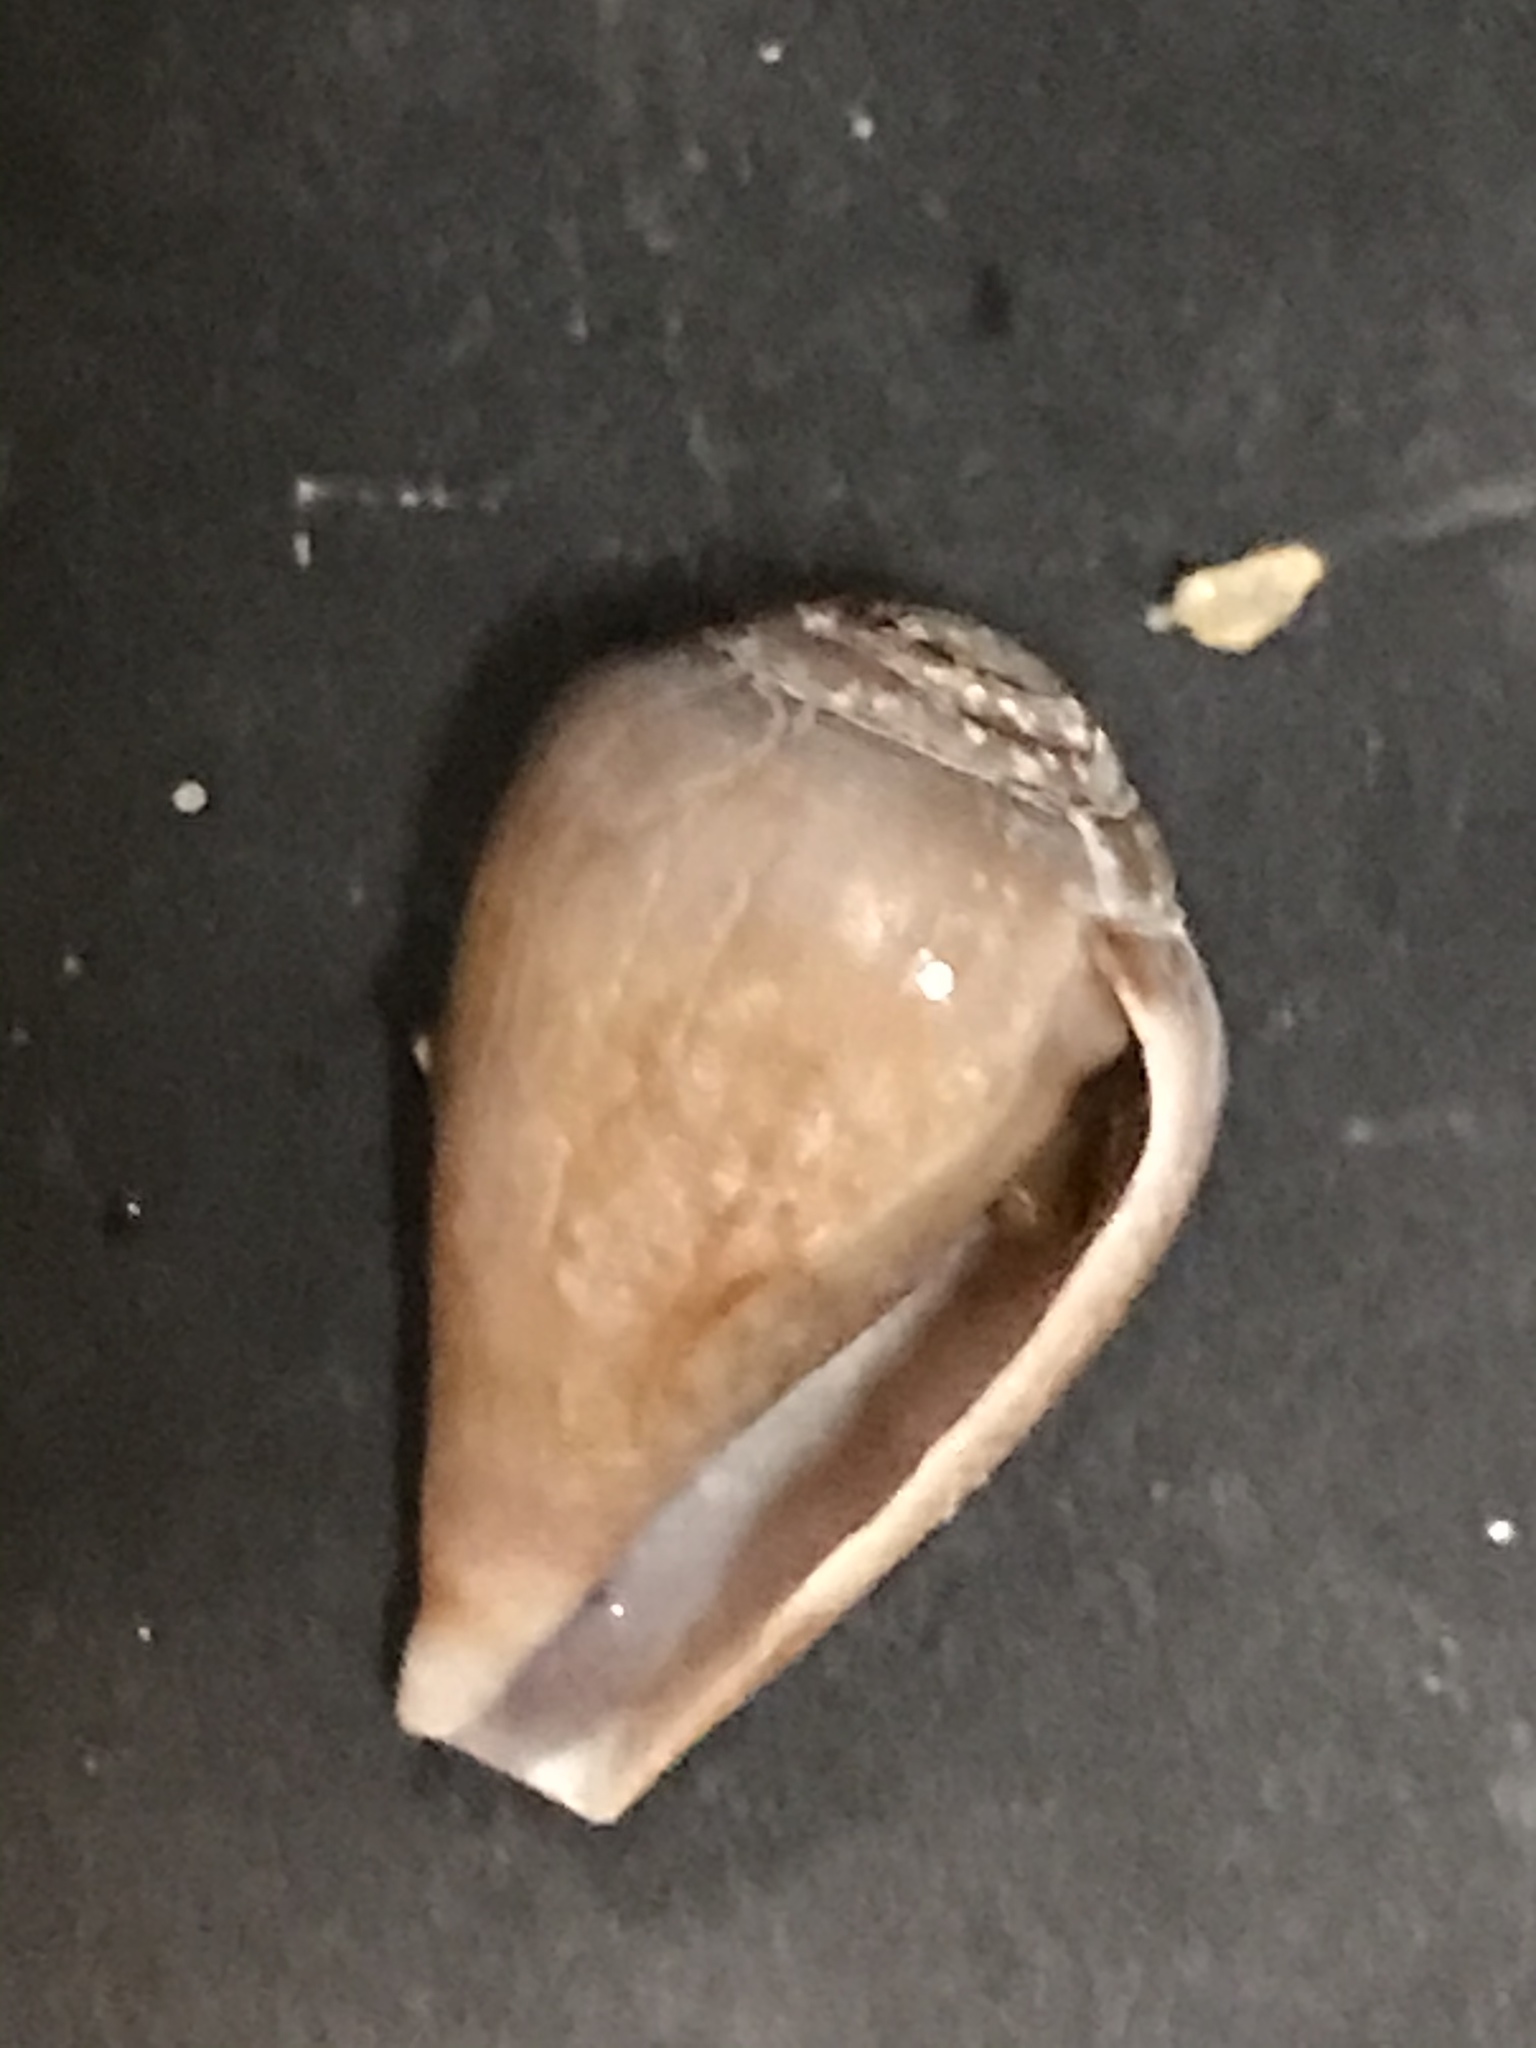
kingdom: Animalia
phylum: Mollusca
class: Gastropoda
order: Neogastropoda
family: Conidae
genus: Californiconus
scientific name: Californiconus californicus
